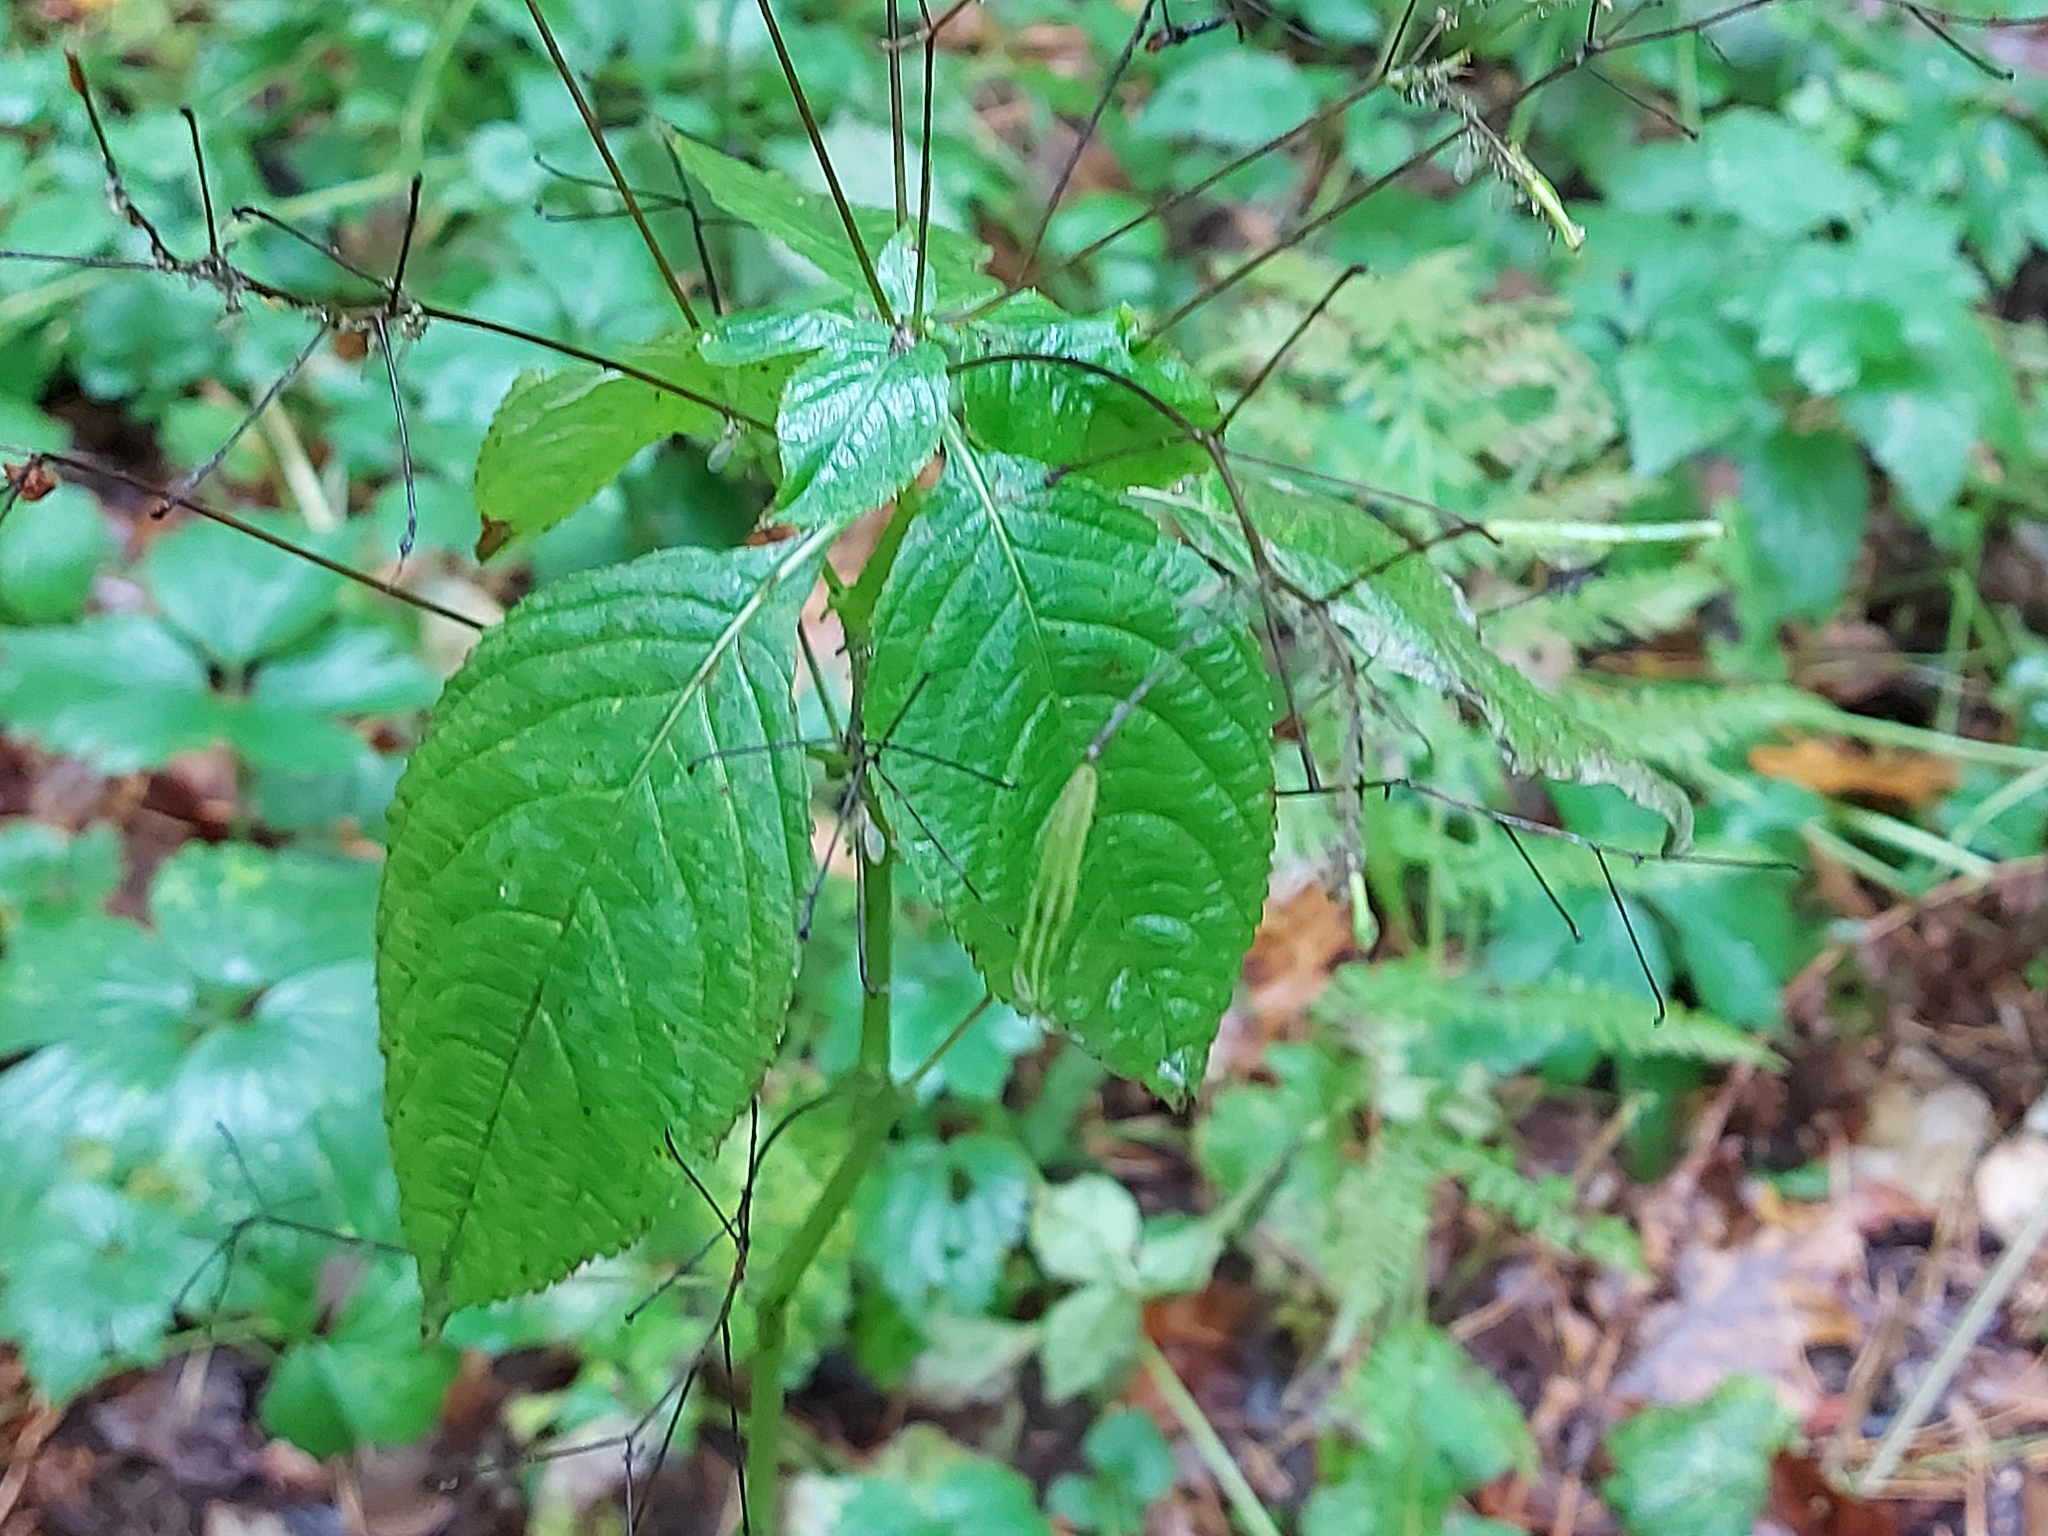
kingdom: Plantae
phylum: Tracheophyta
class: Magnoliopsida
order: Ericales
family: Balsaminaceae
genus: Impatiens
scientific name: Impatiens parviflora
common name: Small balsam
